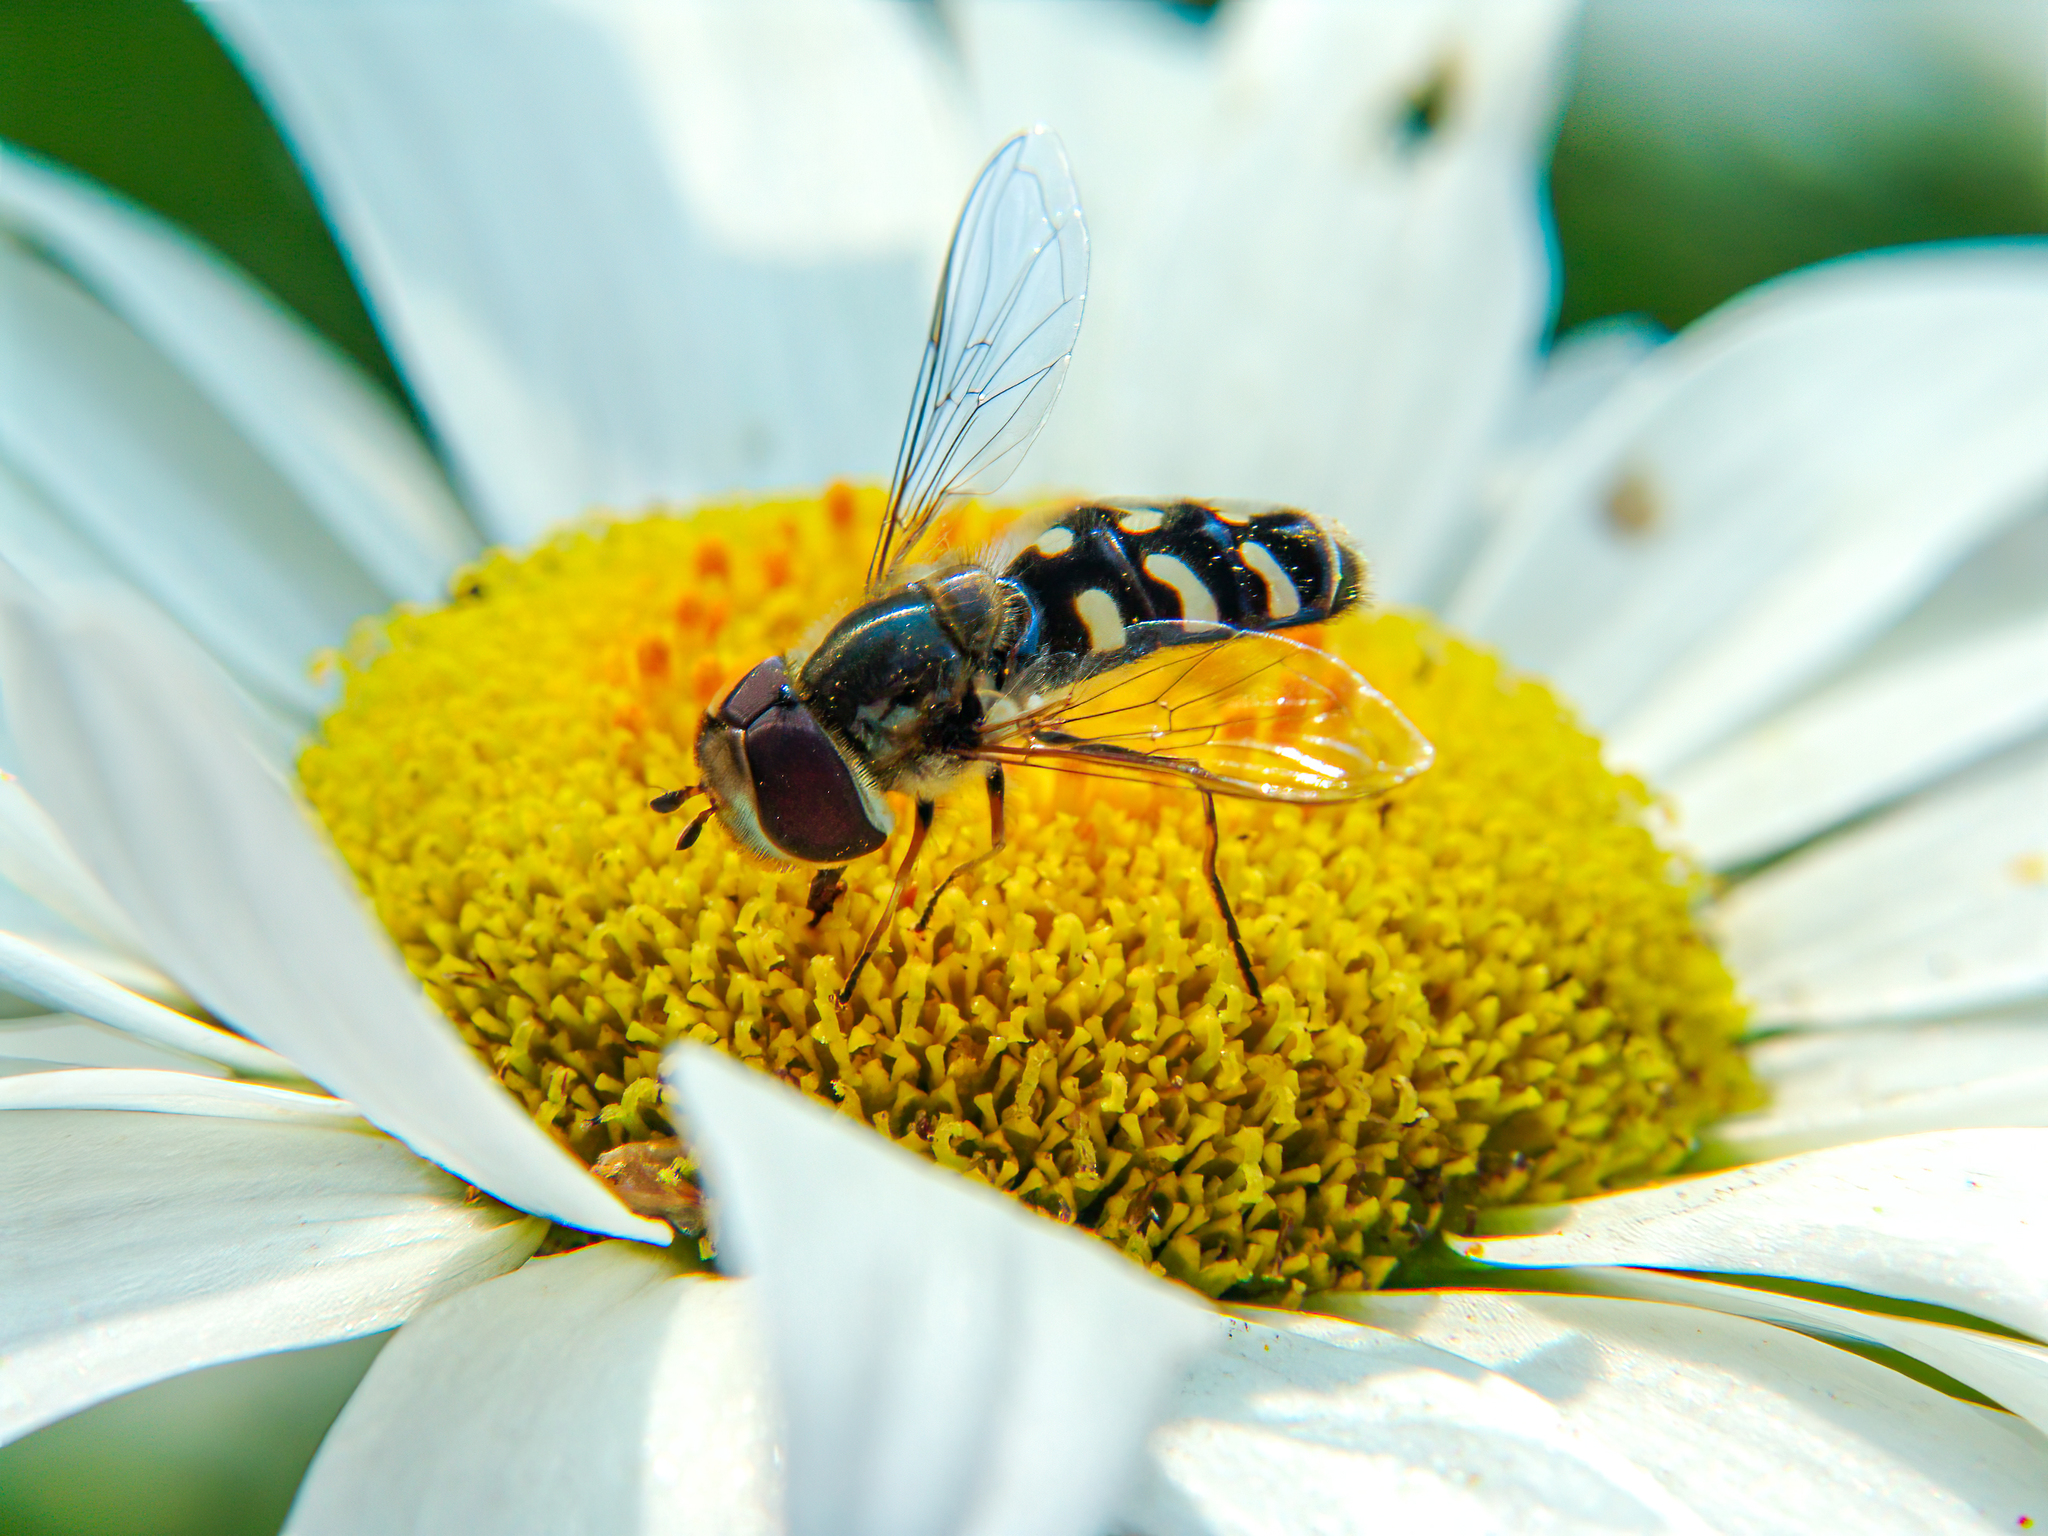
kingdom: Animalia
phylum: Arthropoda
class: Insecta
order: Diptera
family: Syrphidae
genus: Scaeva
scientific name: Scaeva pyrastri
